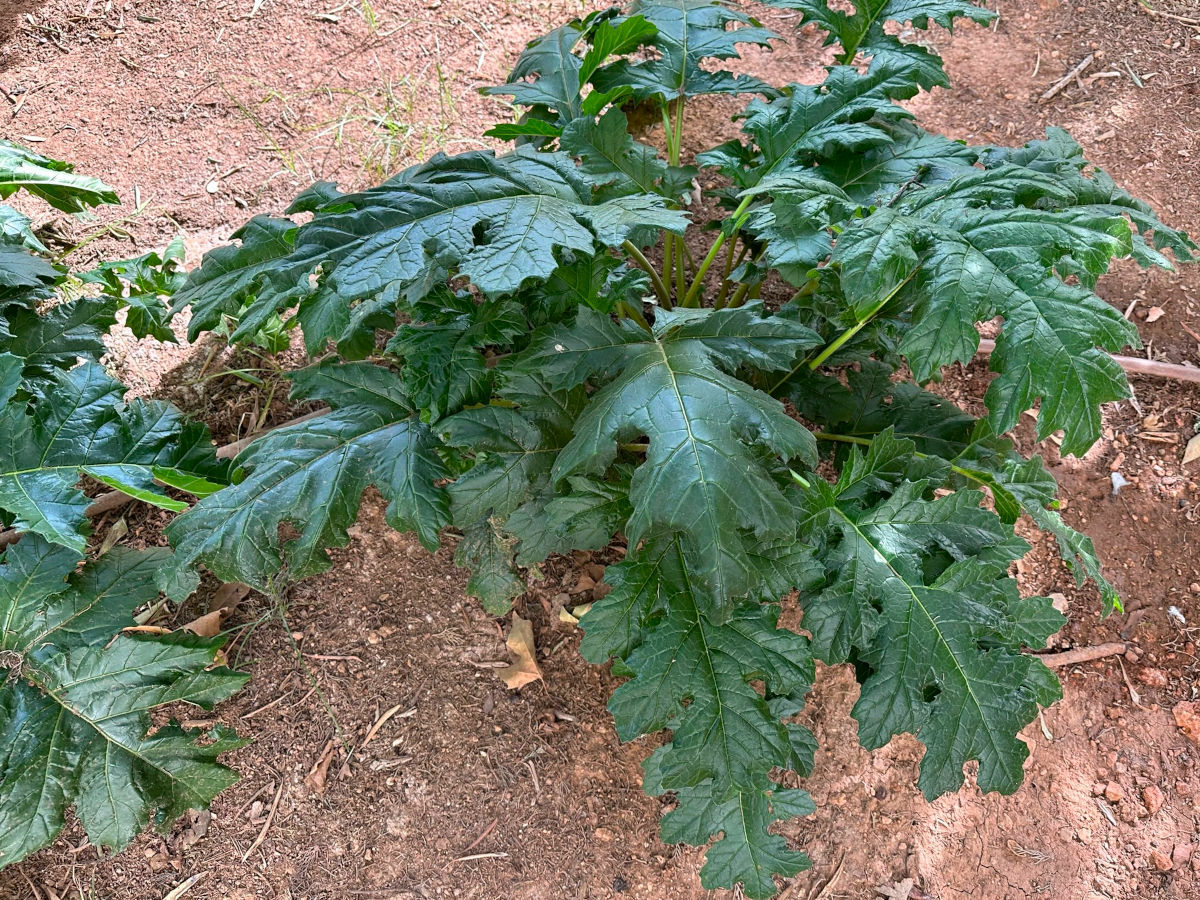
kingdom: Plantae
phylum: Tracheophyta
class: Magnoliopsida
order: Lamiales
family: Acanthaceae
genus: Acanthus
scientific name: Acanthus mollis
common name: Bear's-breech
